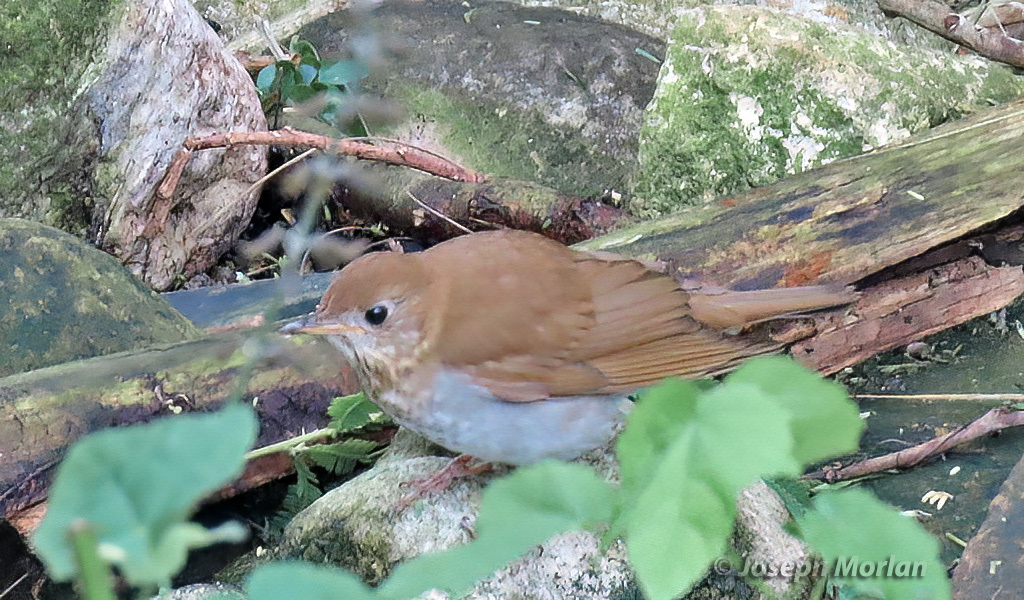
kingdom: Animalia
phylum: Chordata
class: Aves
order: Passeriformes
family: Turdidae
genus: Catharus
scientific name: Catharus fuscescens
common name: Veery
